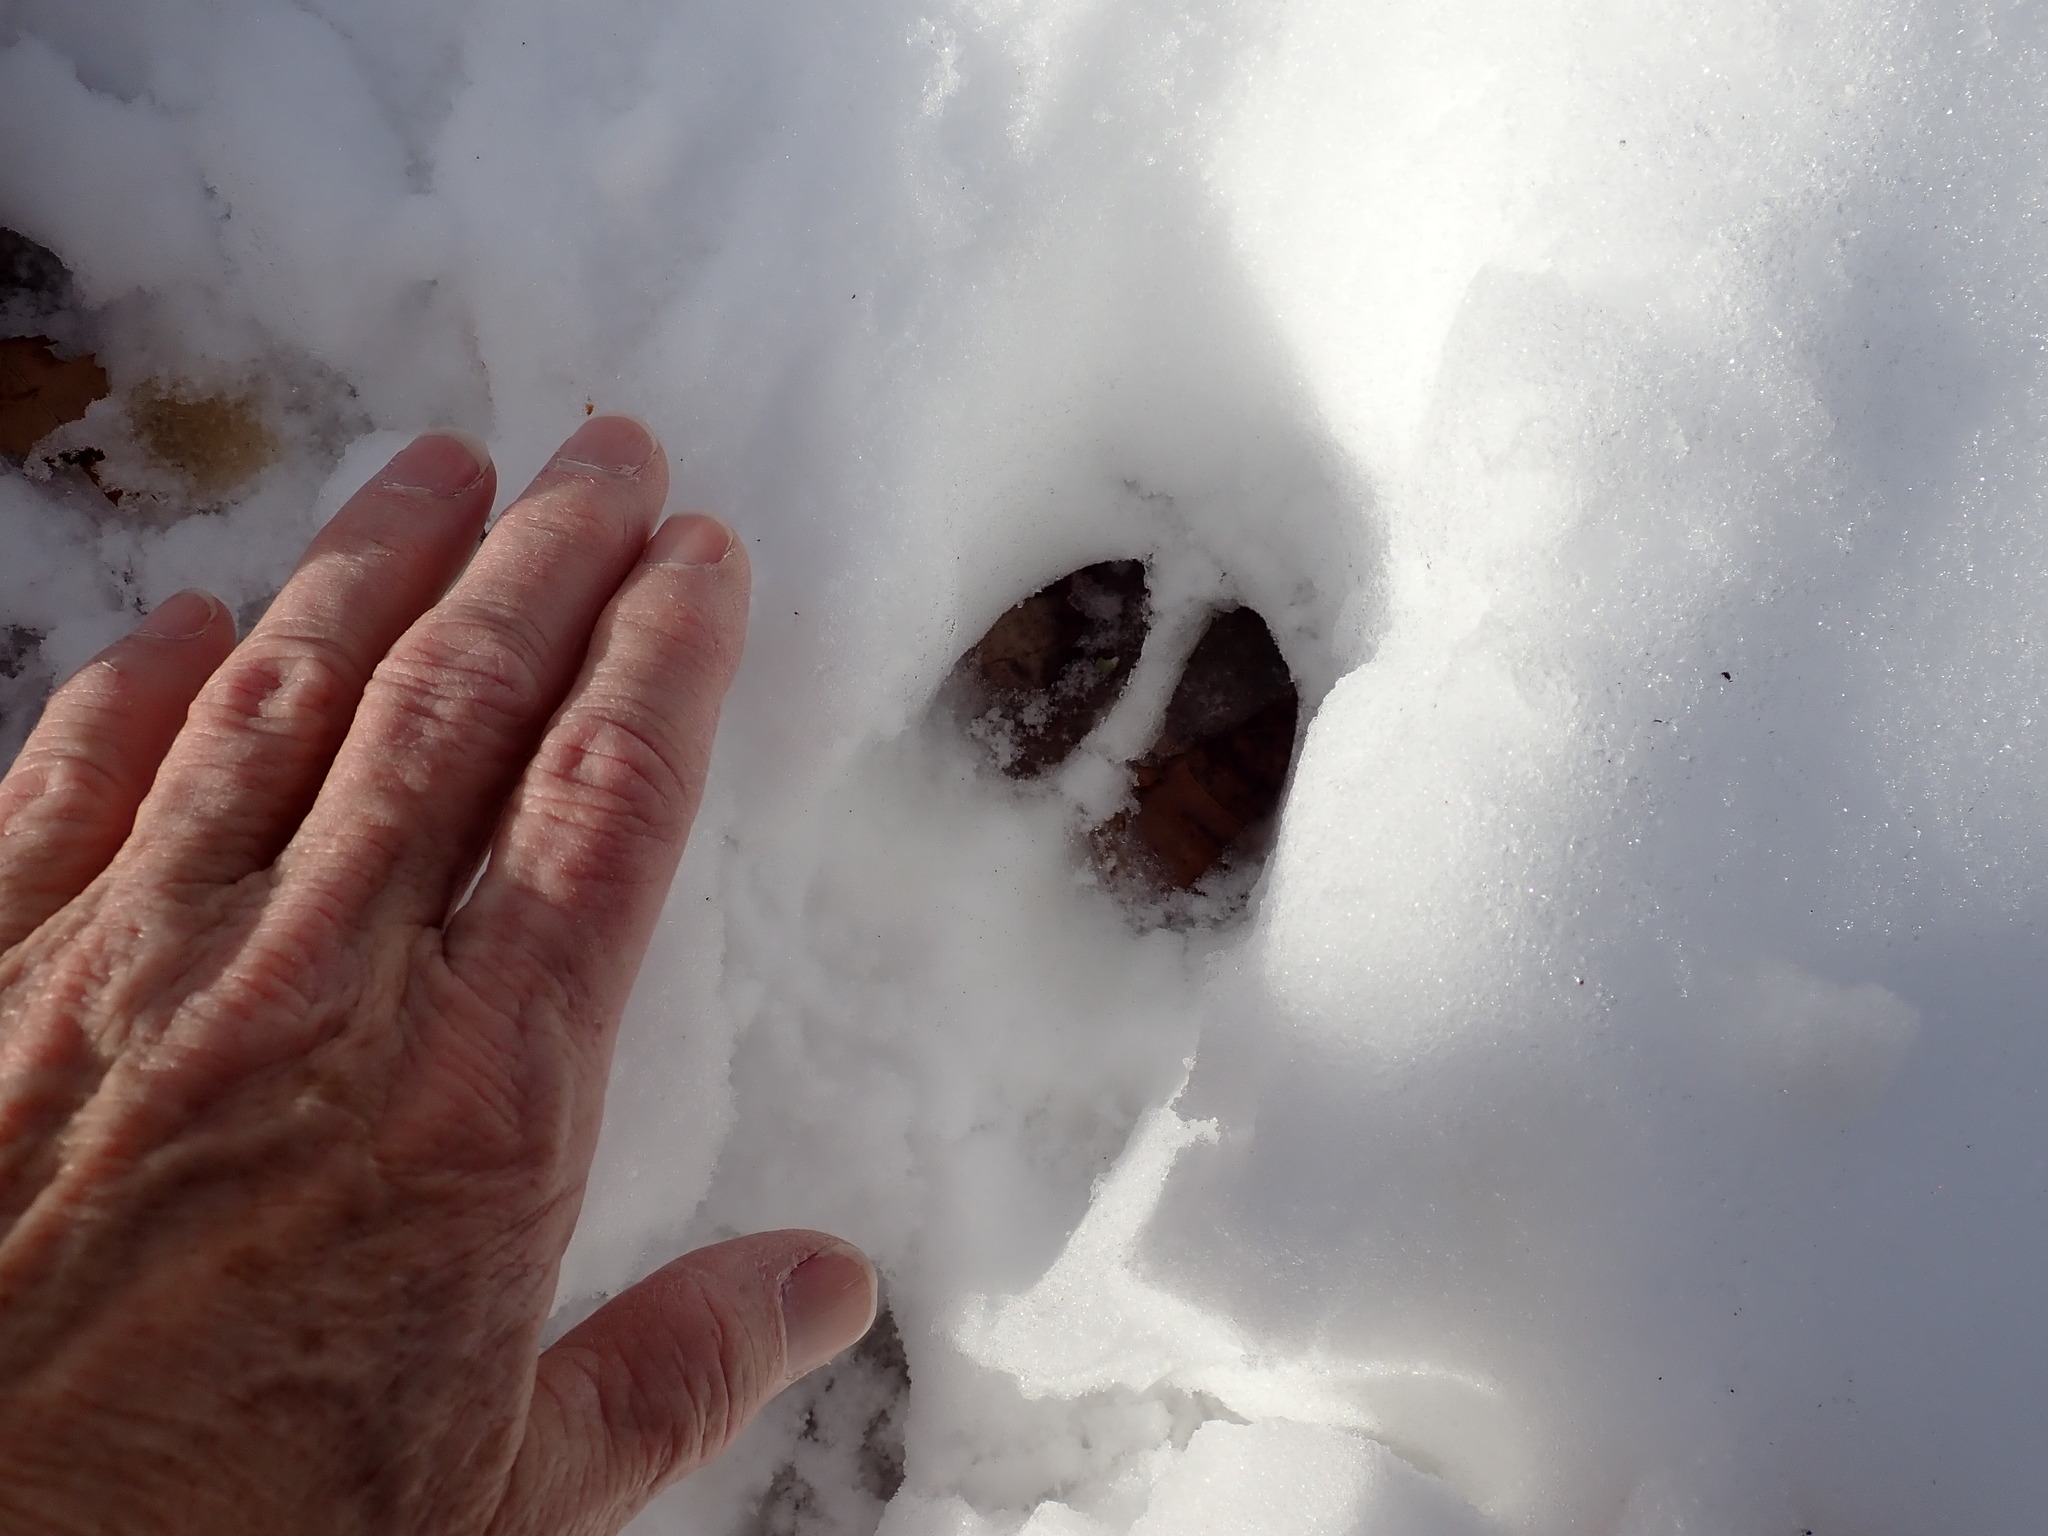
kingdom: Animalia
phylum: Chordata
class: Mammalia
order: Artiodactyla
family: Cervidae
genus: Odocoileus
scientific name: Odocoileus virginianus
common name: White-tailed deer
